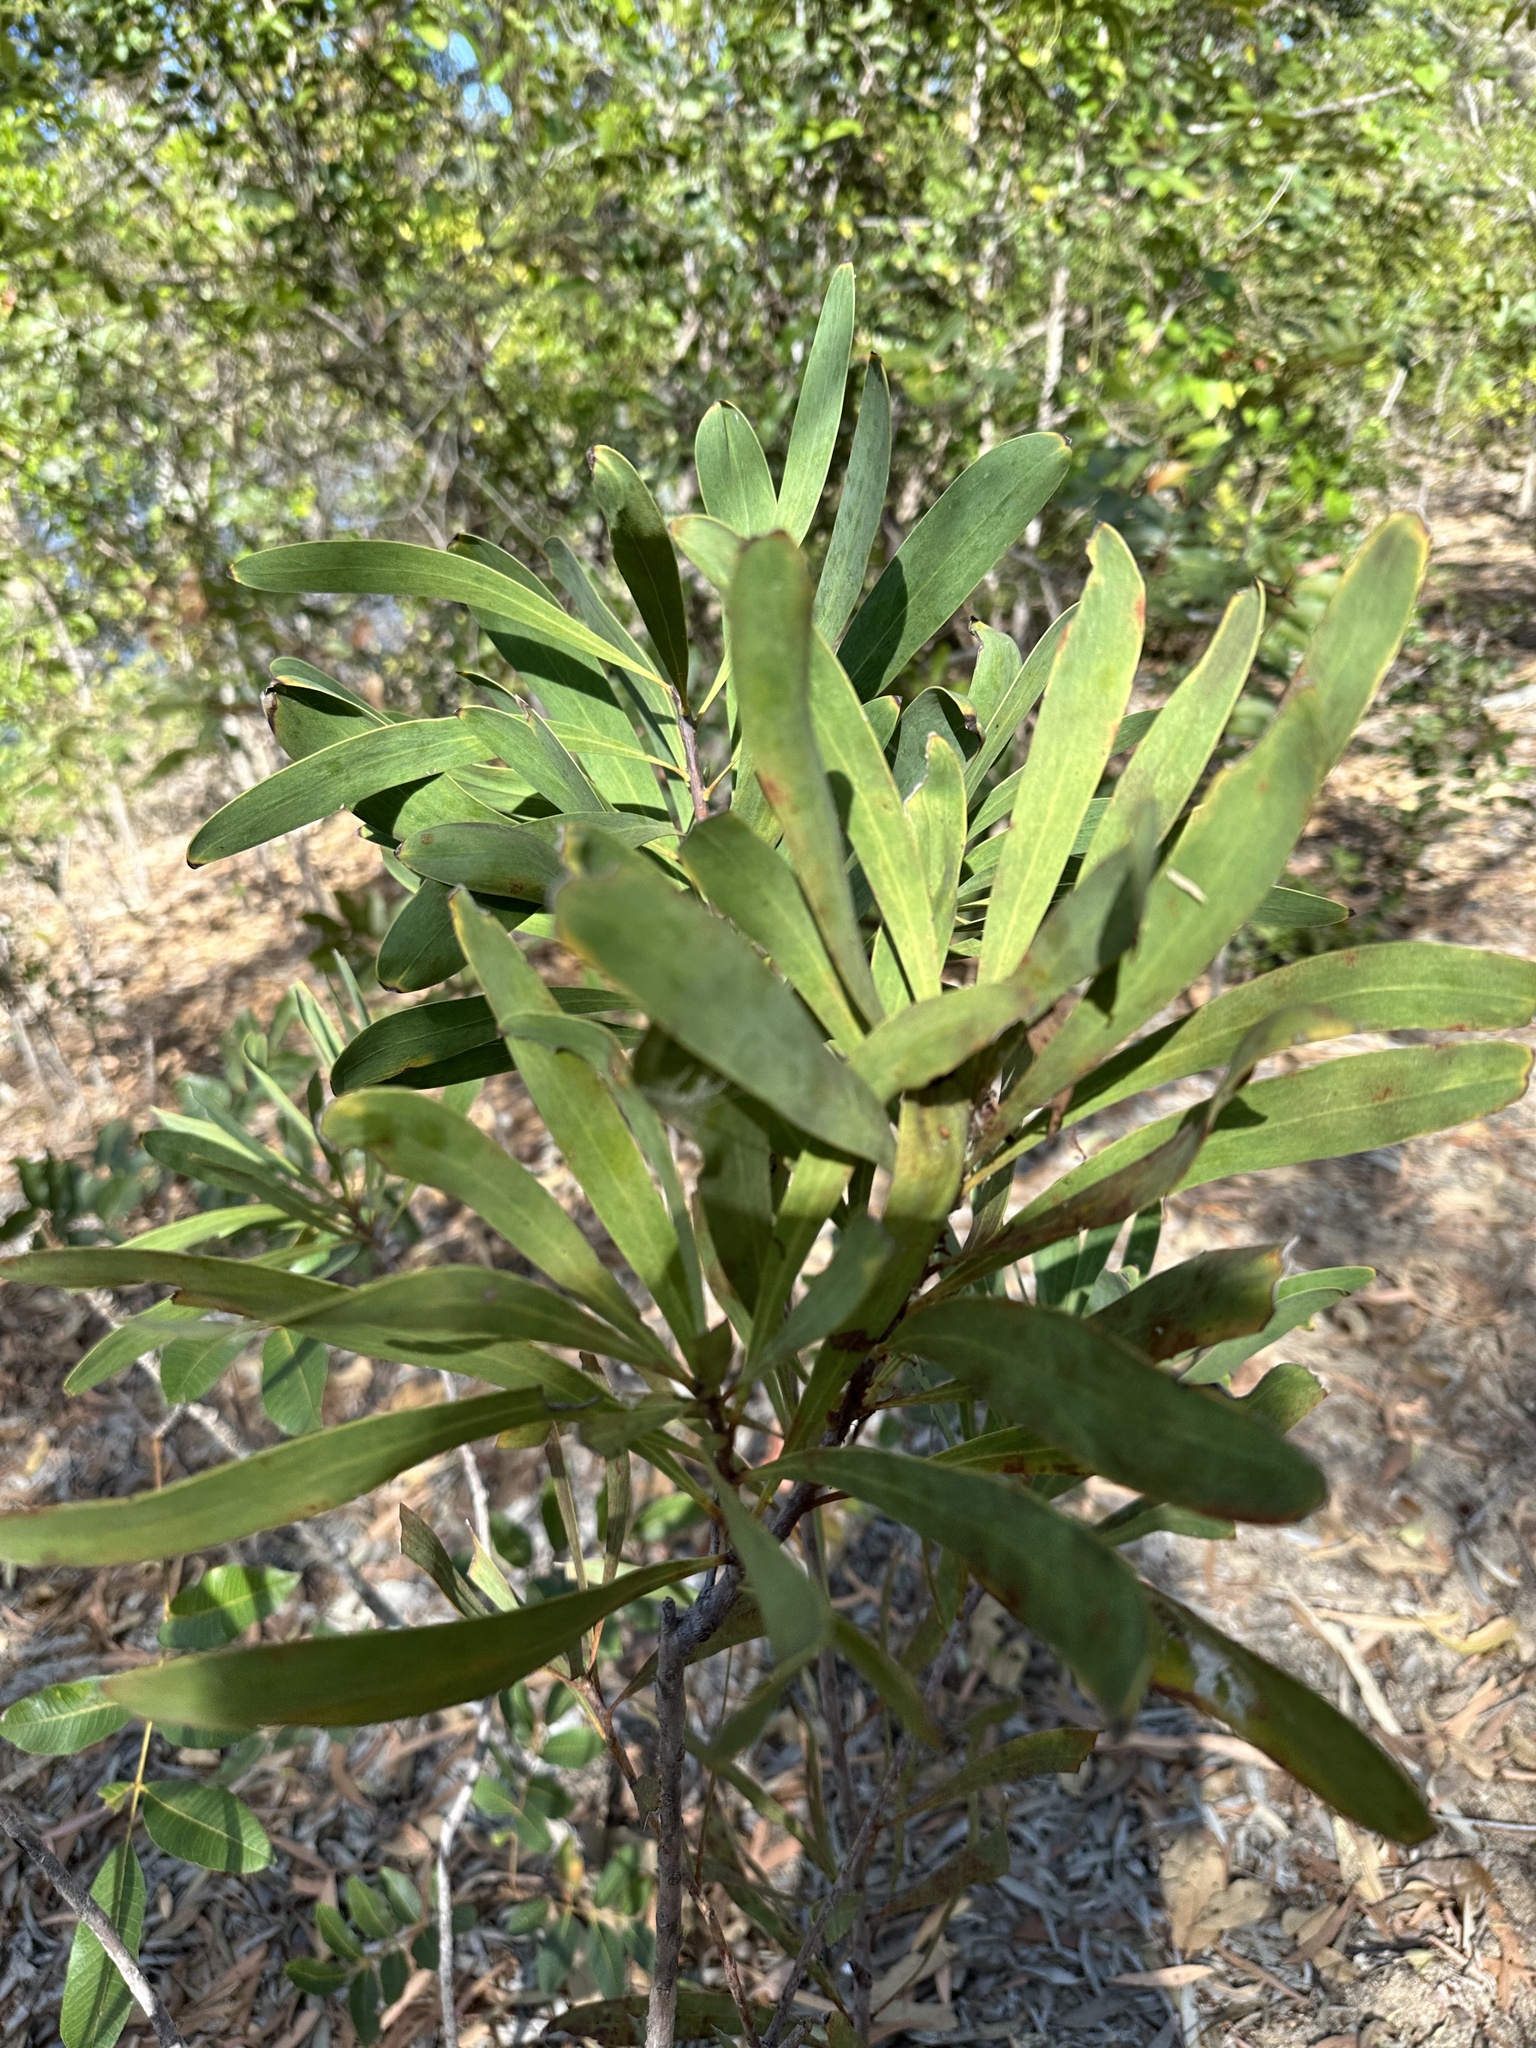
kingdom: Plantae
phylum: Tracheophyta
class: Magnoliopsida
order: Proteales
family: Proteaceae
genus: Persoonia
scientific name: Persoonia falcata
